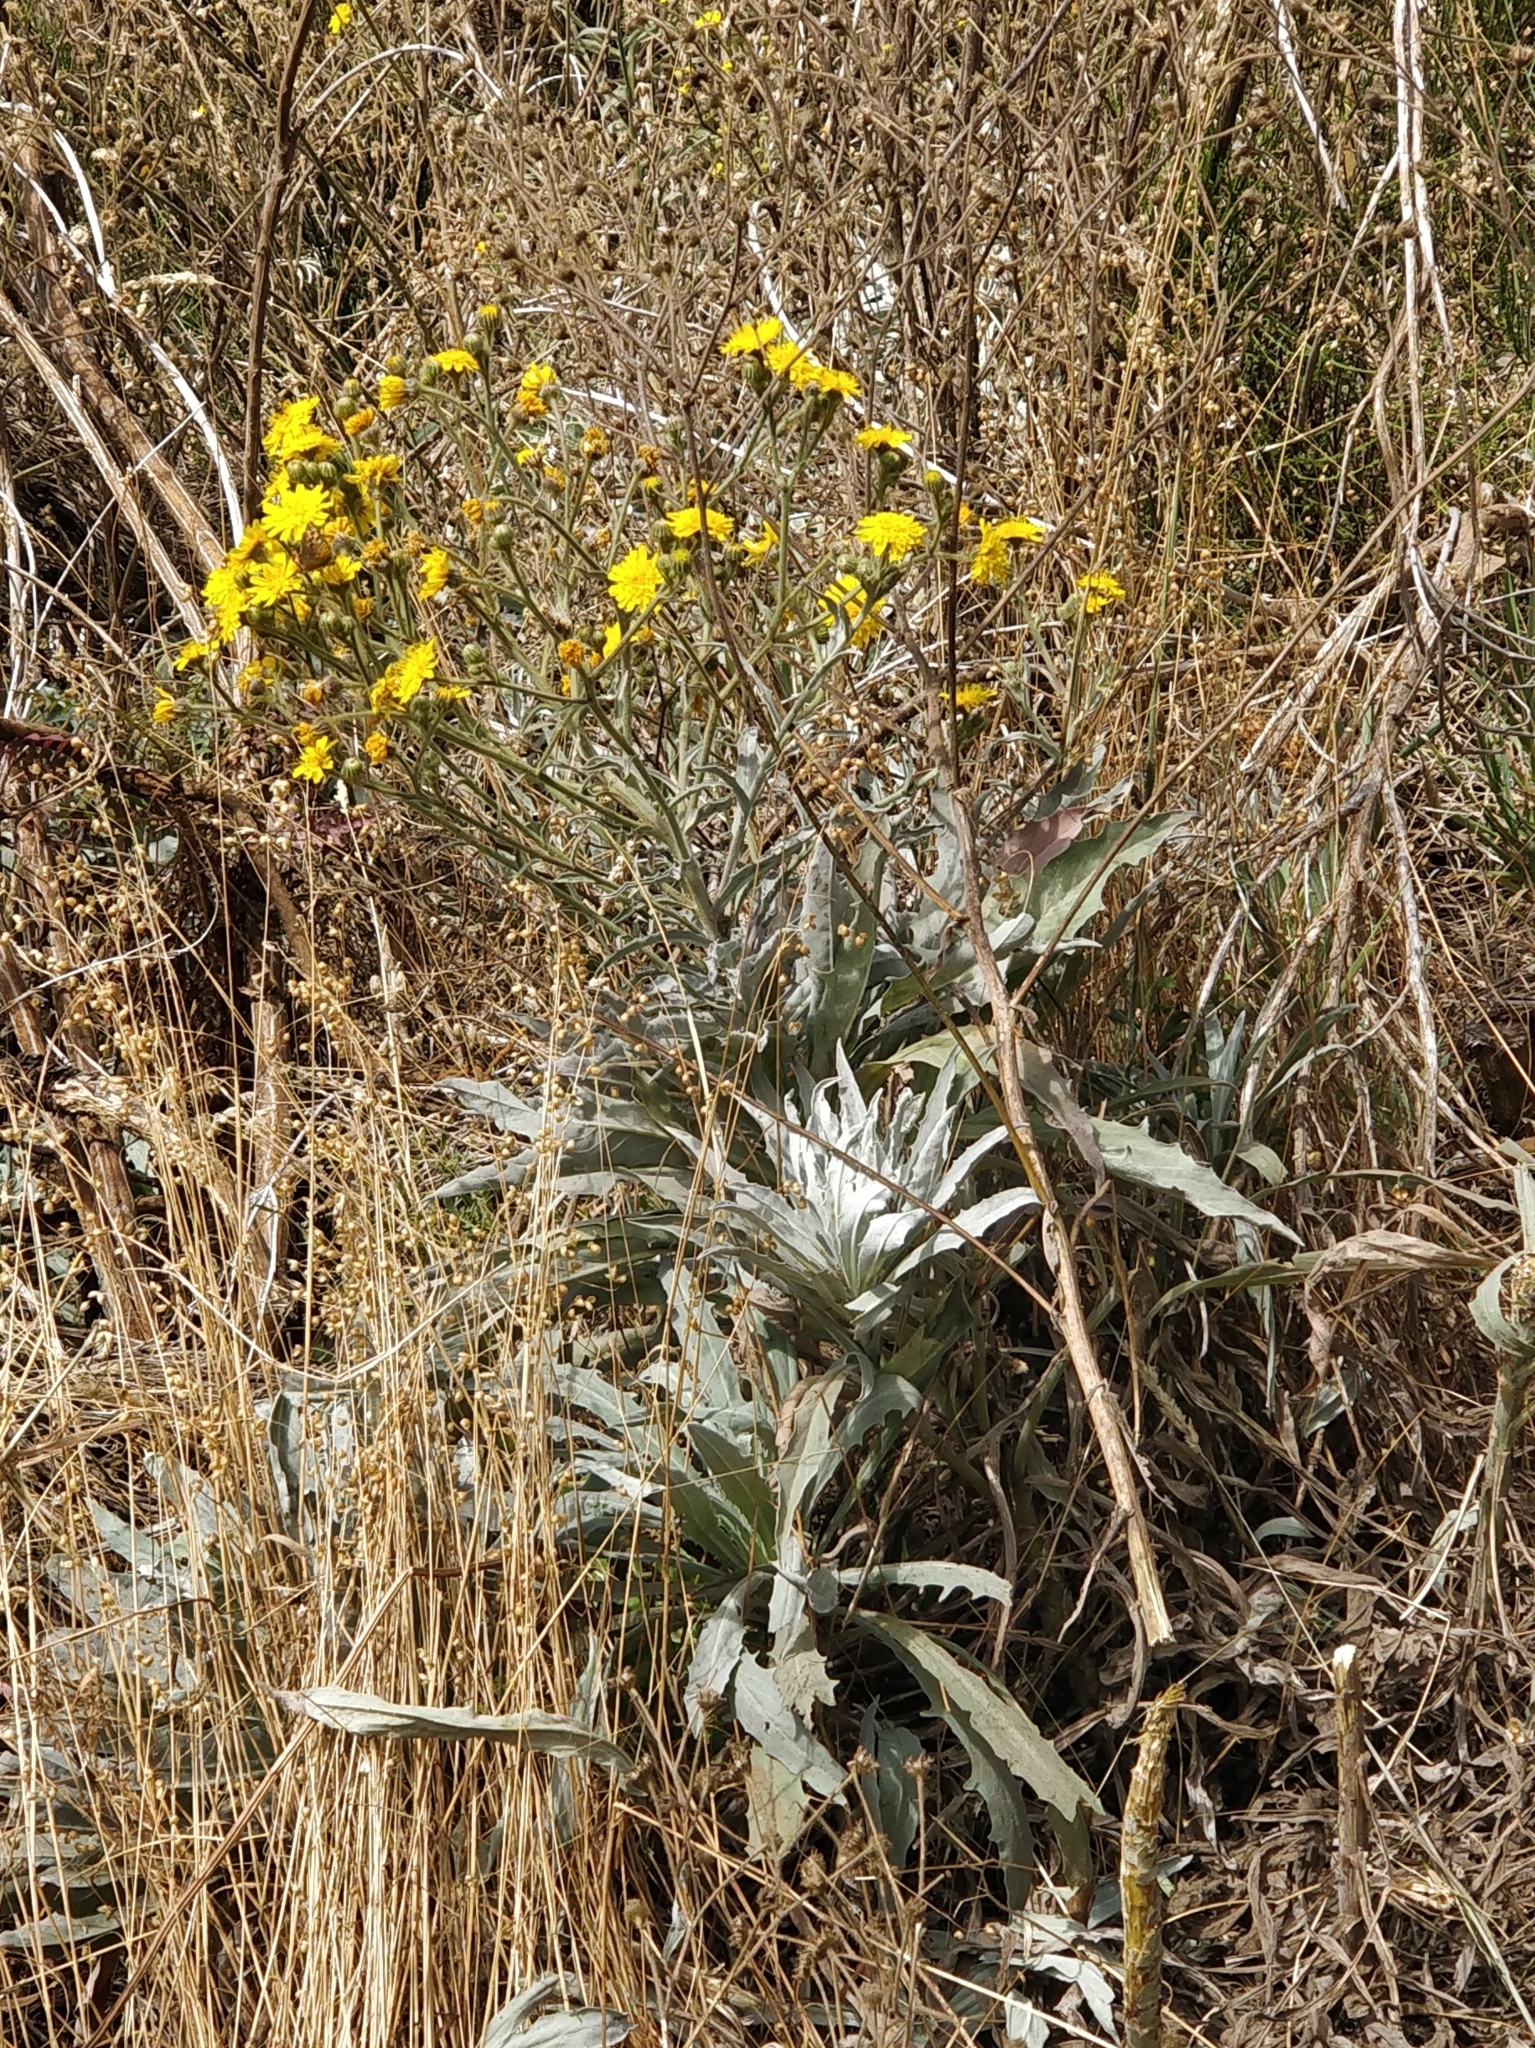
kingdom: Plantae
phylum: Tracheophyta
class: Magnoliopsida
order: Asterales
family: Asteraceae
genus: Andryala
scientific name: Andryala glandulosa
